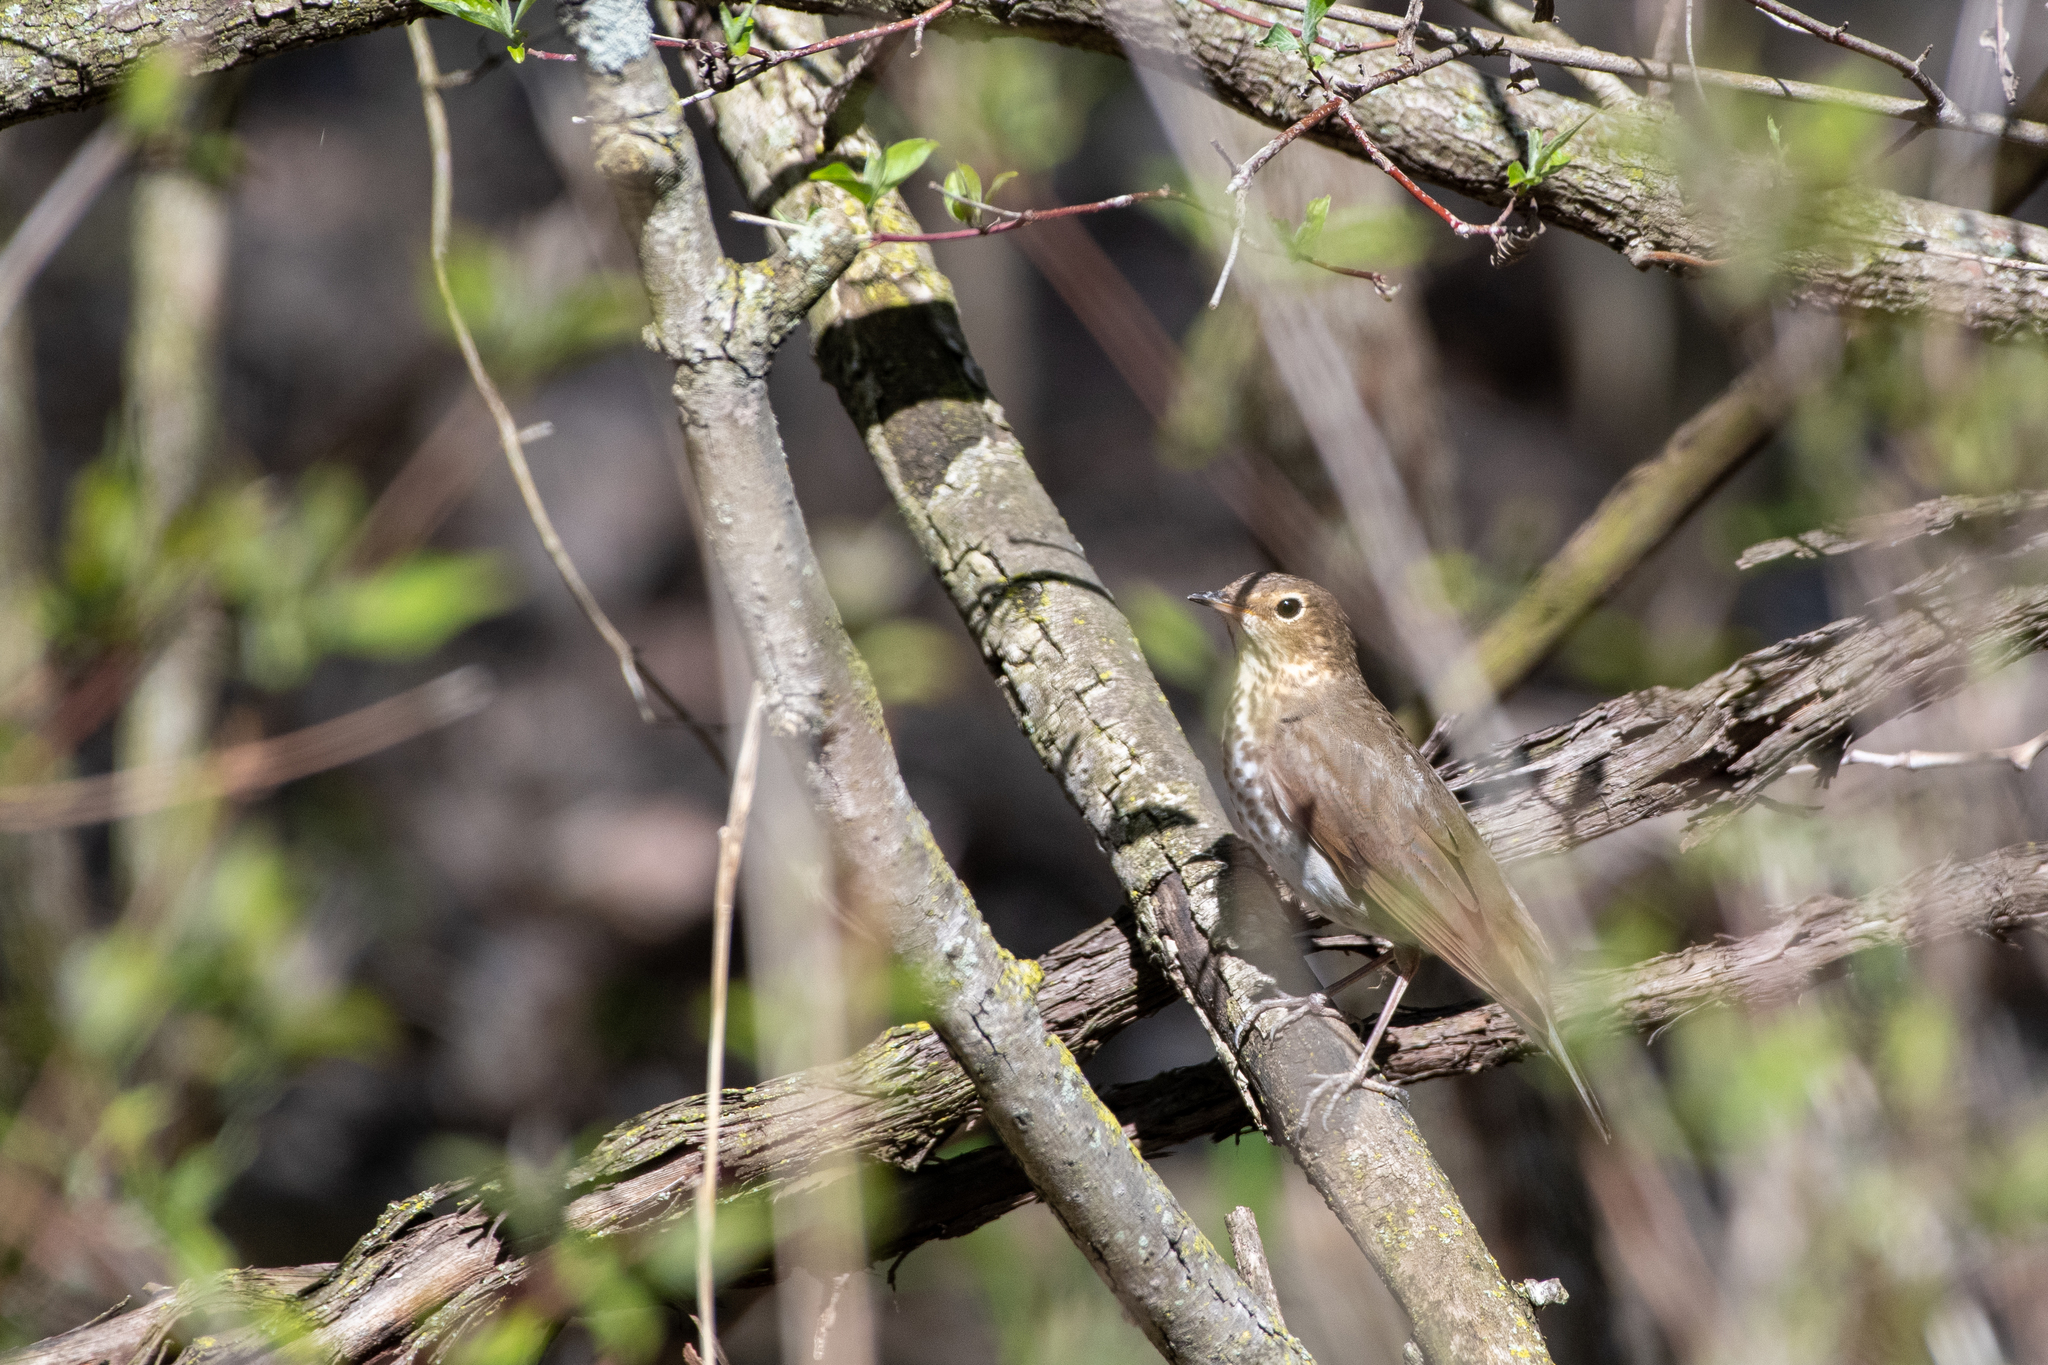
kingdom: Animalia
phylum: Chordata
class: Aves
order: Passeriformes
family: Turdidae
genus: Catharus
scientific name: Catharus ustulatus
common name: Swainson's thrush
